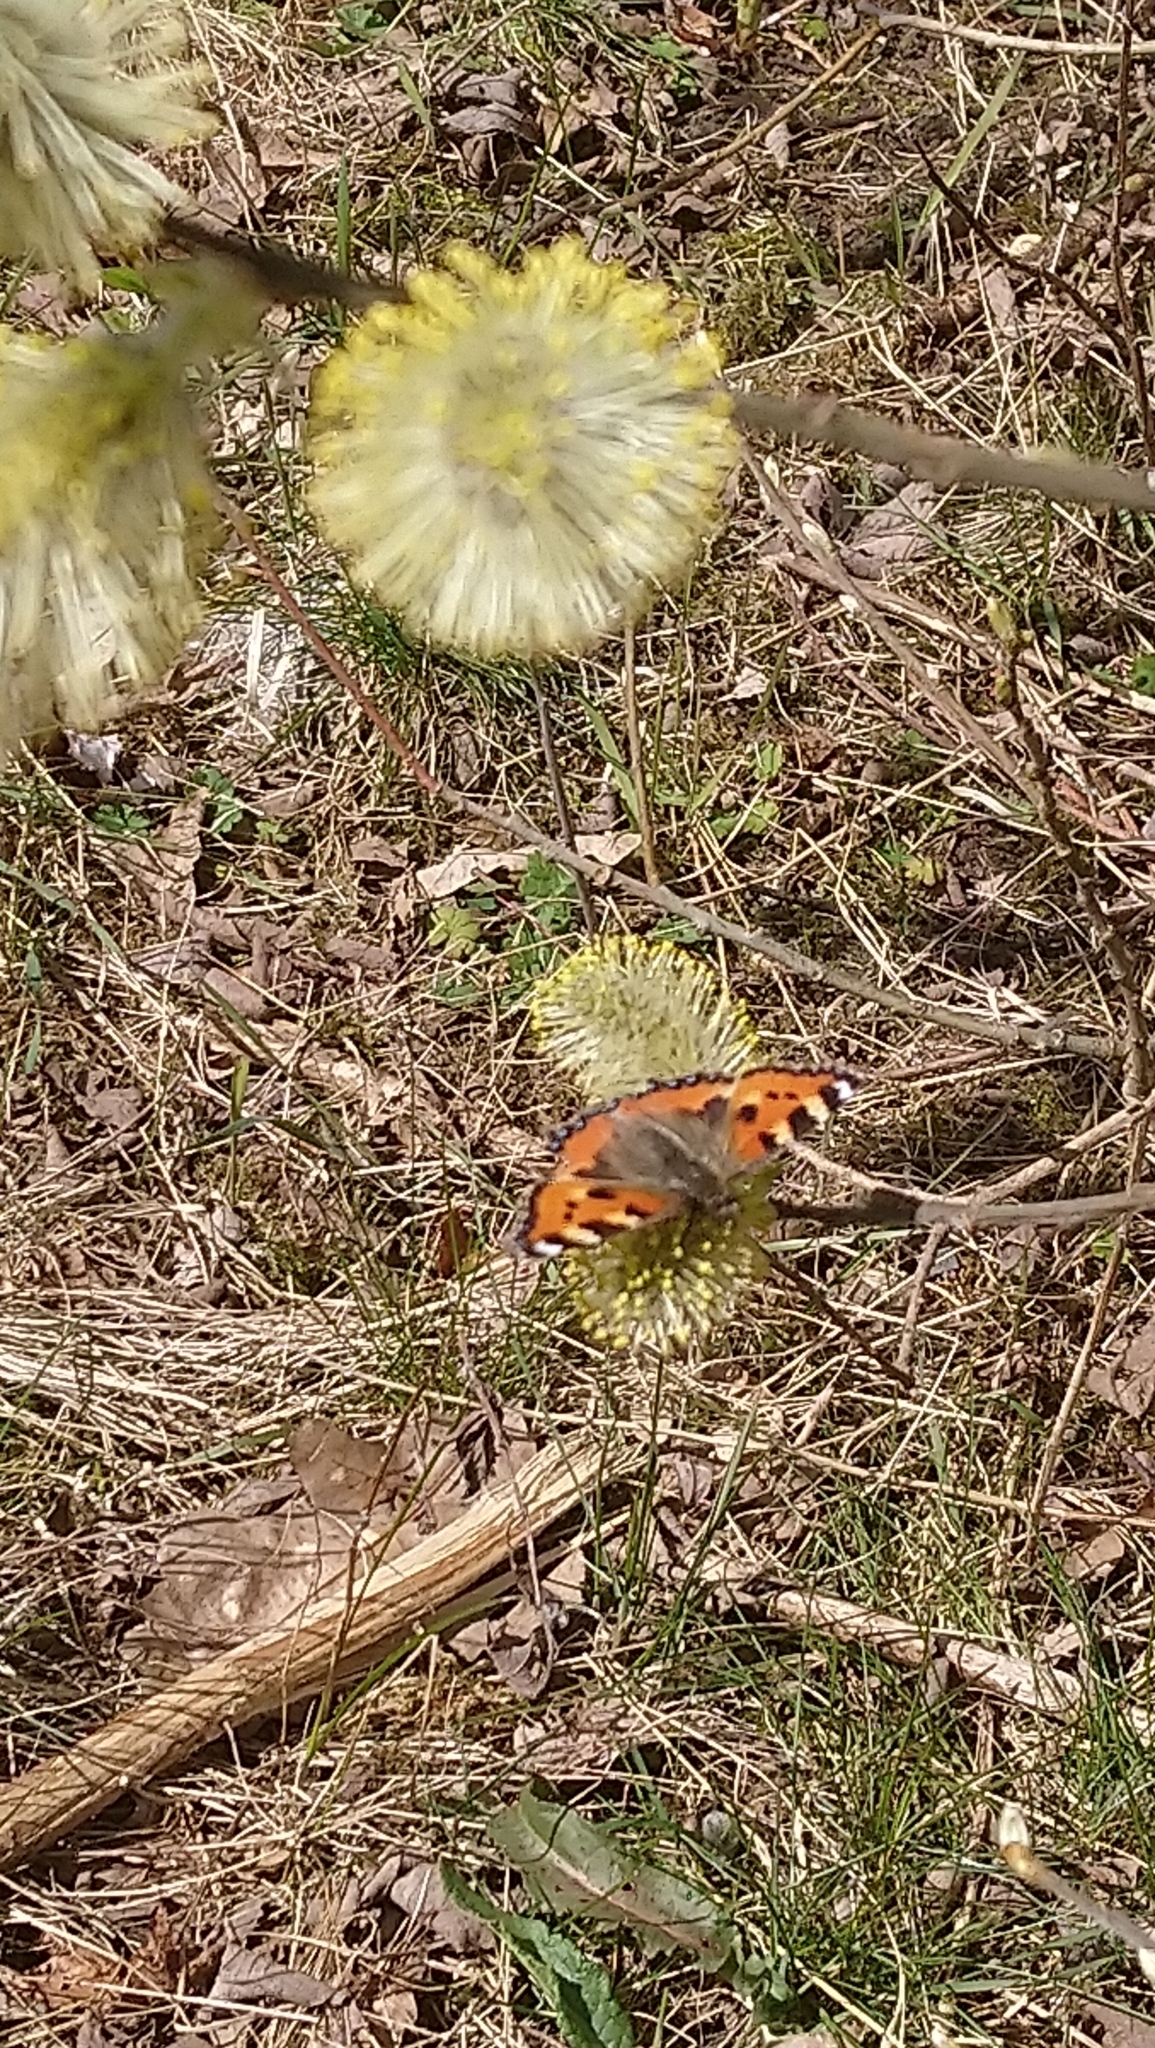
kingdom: Animalia
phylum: Arthropoda
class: Insecta
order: Lepidoptera
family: Nymphalidae
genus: Aglais
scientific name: Aglais urticae
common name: Small tortoiseshell
